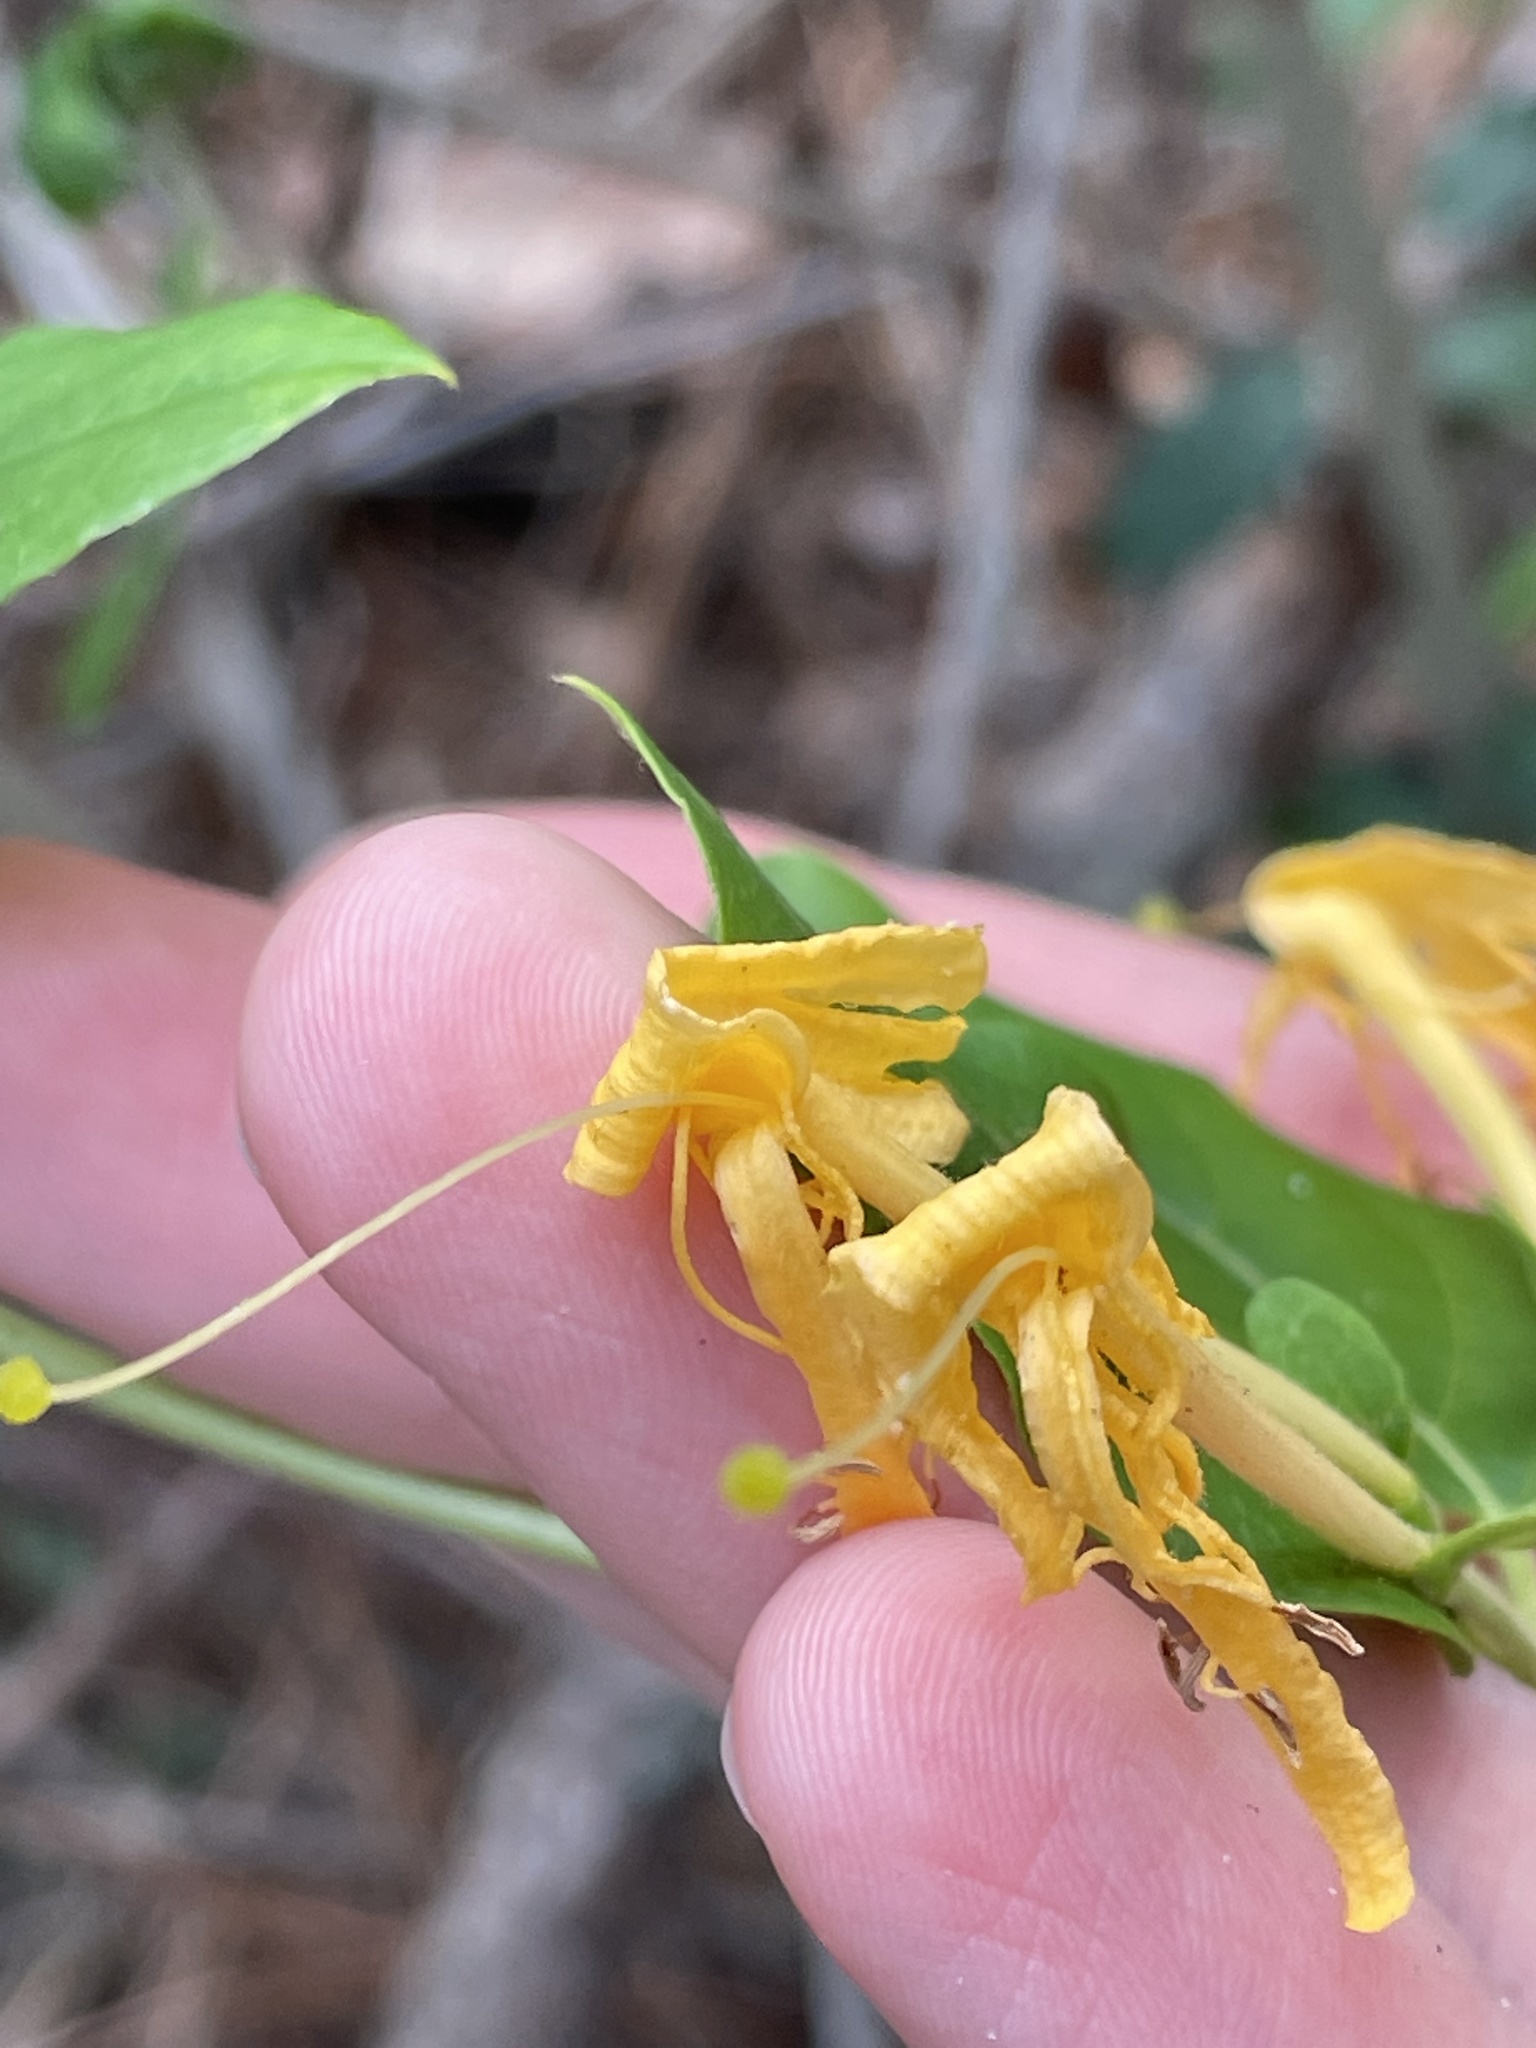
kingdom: Plantae
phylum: Tracheophyta
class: Magnoliopsida
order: Dipsacales
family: Caprifoliaceae
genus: Lonicera
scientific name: Lonicera japonica
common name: Japanese honeysuckle
